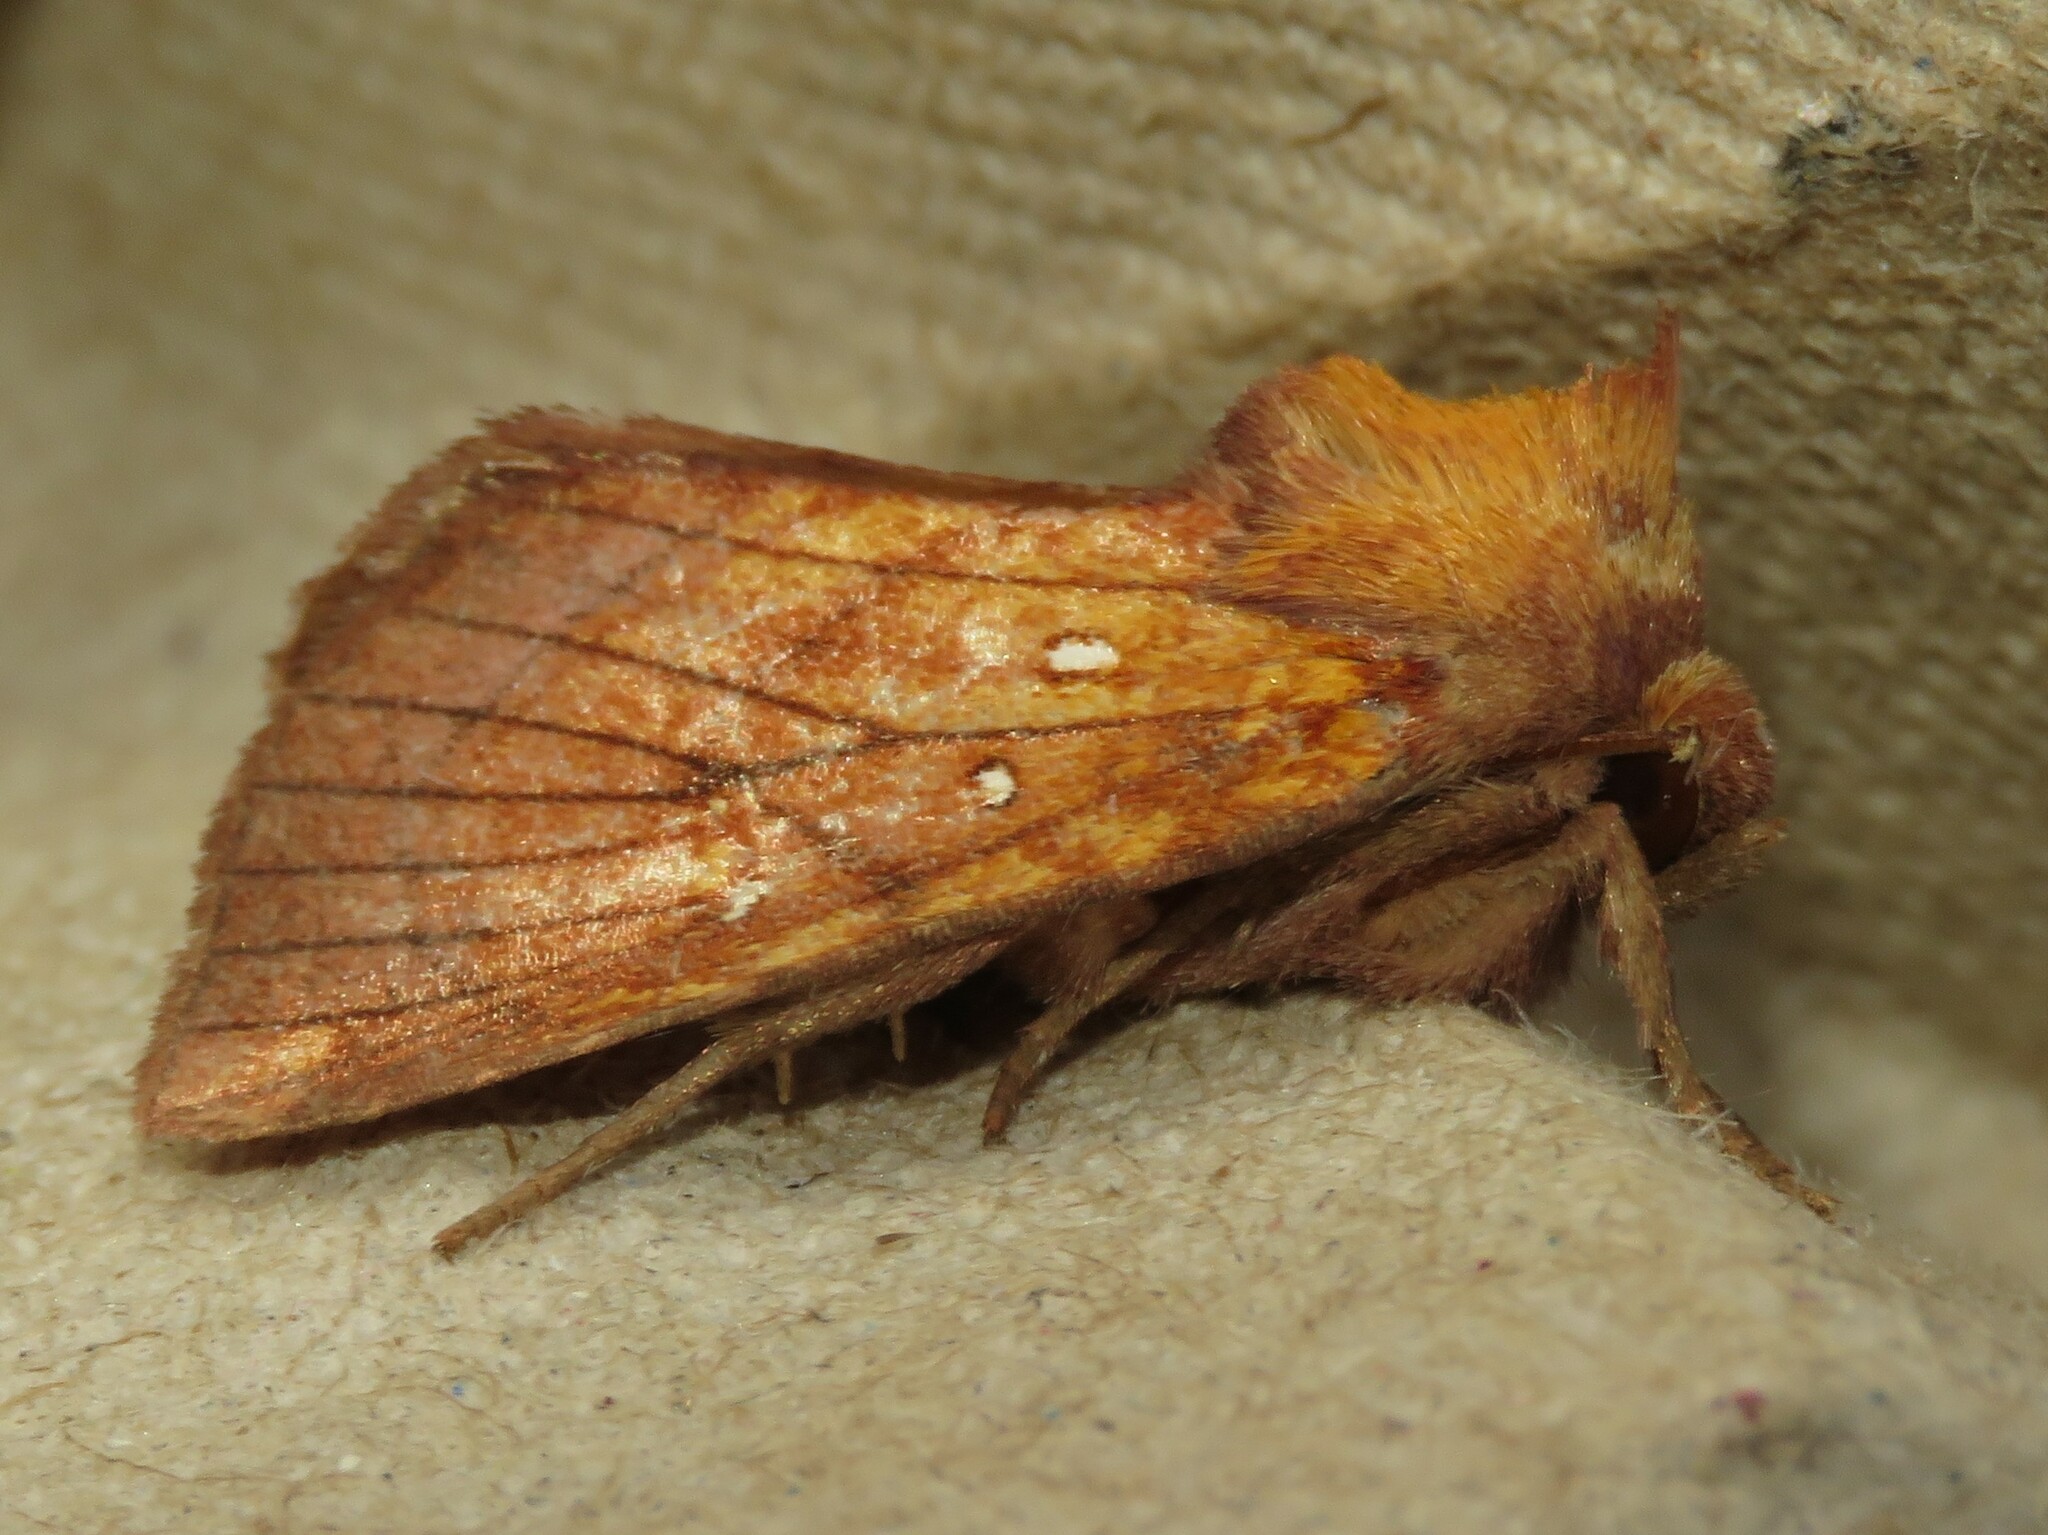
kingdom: Animalia
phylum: Arthropoda
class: Insecta
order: Lepidoptera
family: Noctuidae
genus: Papaipema
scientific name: Papaipema inquaesita
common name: Sensitive fern borer moth
